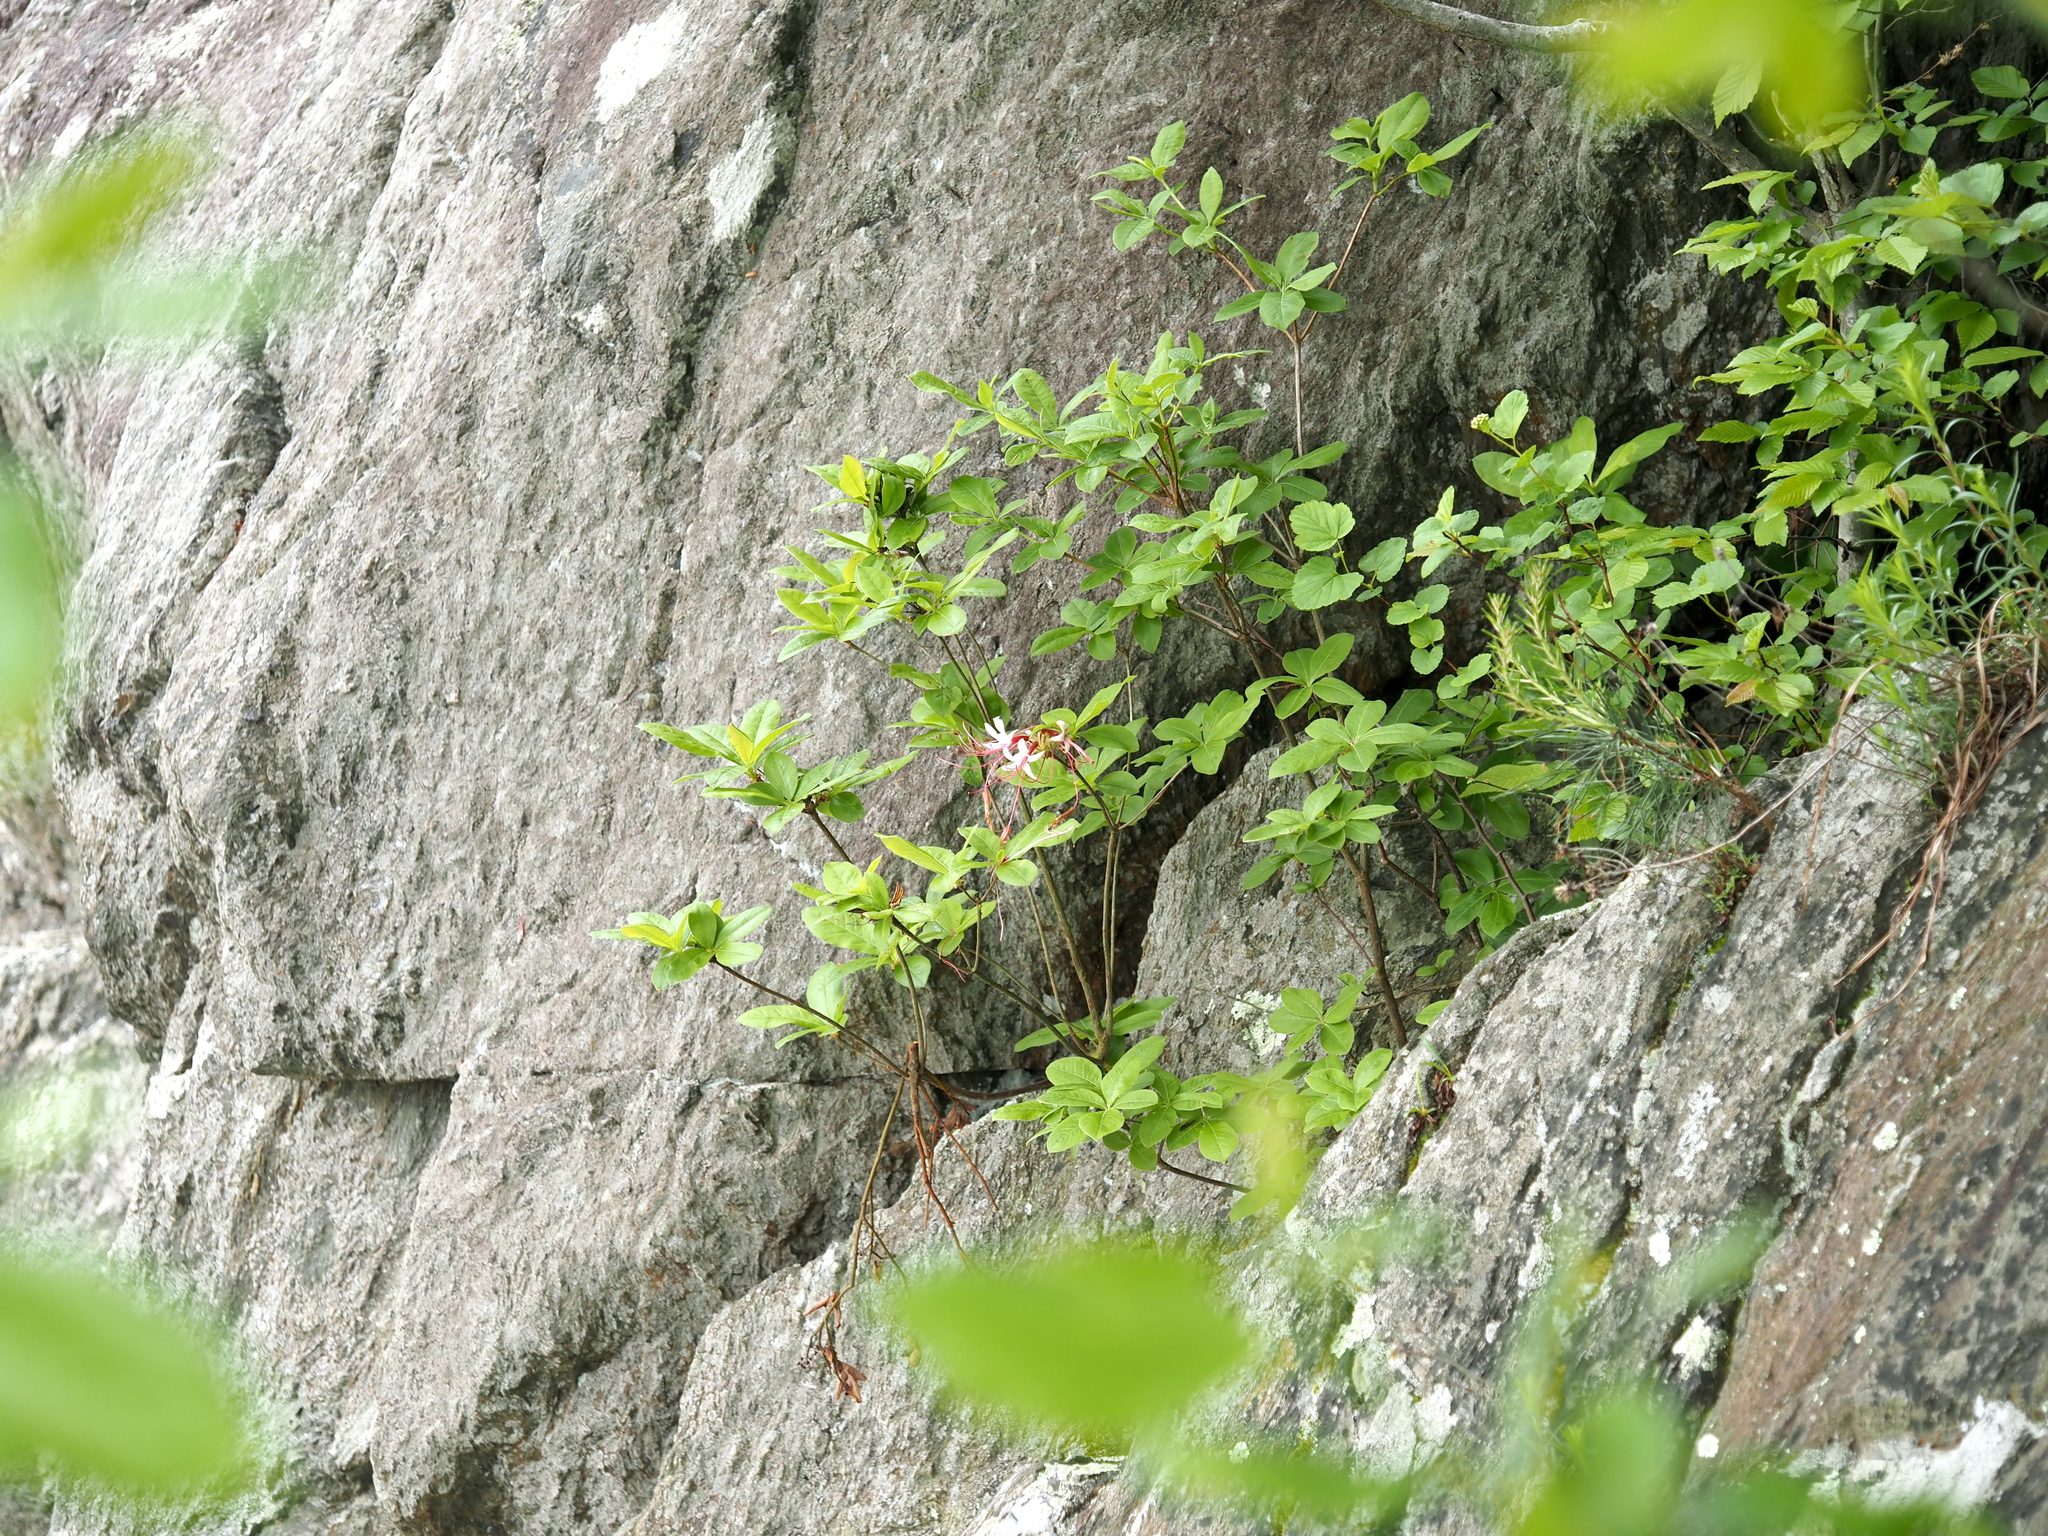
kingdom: Plantae
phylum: Tracheophyta
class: Magnoliopsida
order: Ericales
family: Ericaceae
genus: Rhododendron
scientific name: Rhododendron periclymenoides
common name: Election-pink
